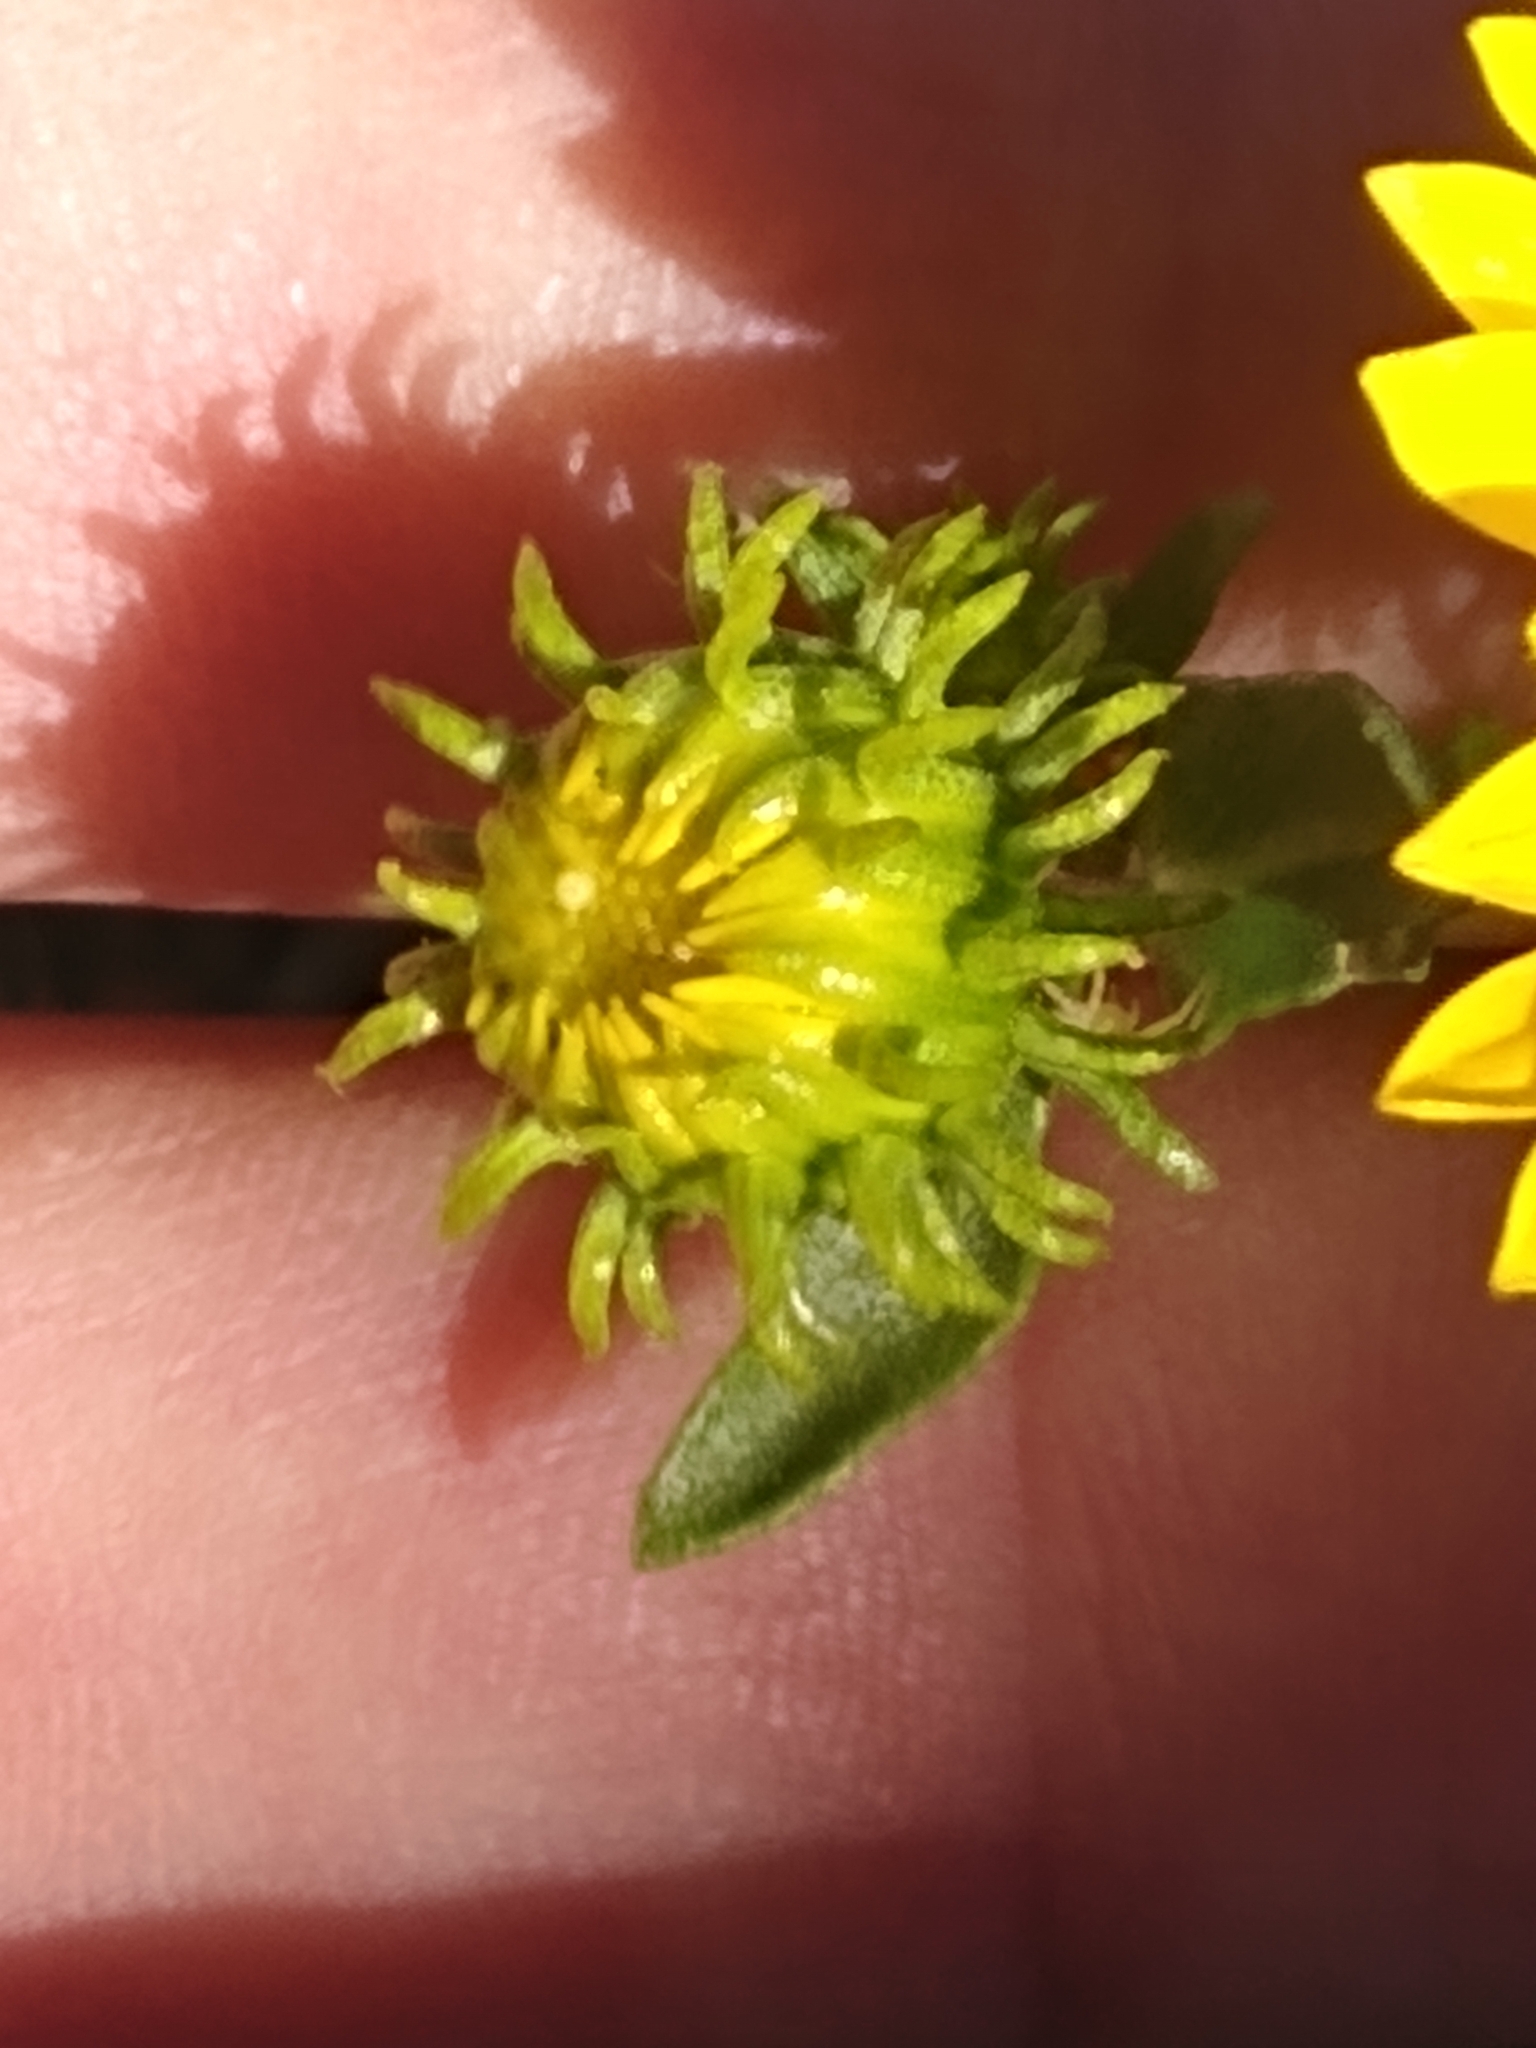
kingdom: Plantae
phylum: Tracheophyta
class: Magnoliopsida
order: Asterales
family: Asteraceae
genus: Grindelia
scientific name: Grindelia squarrosa
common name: Curly-cup gumweed
